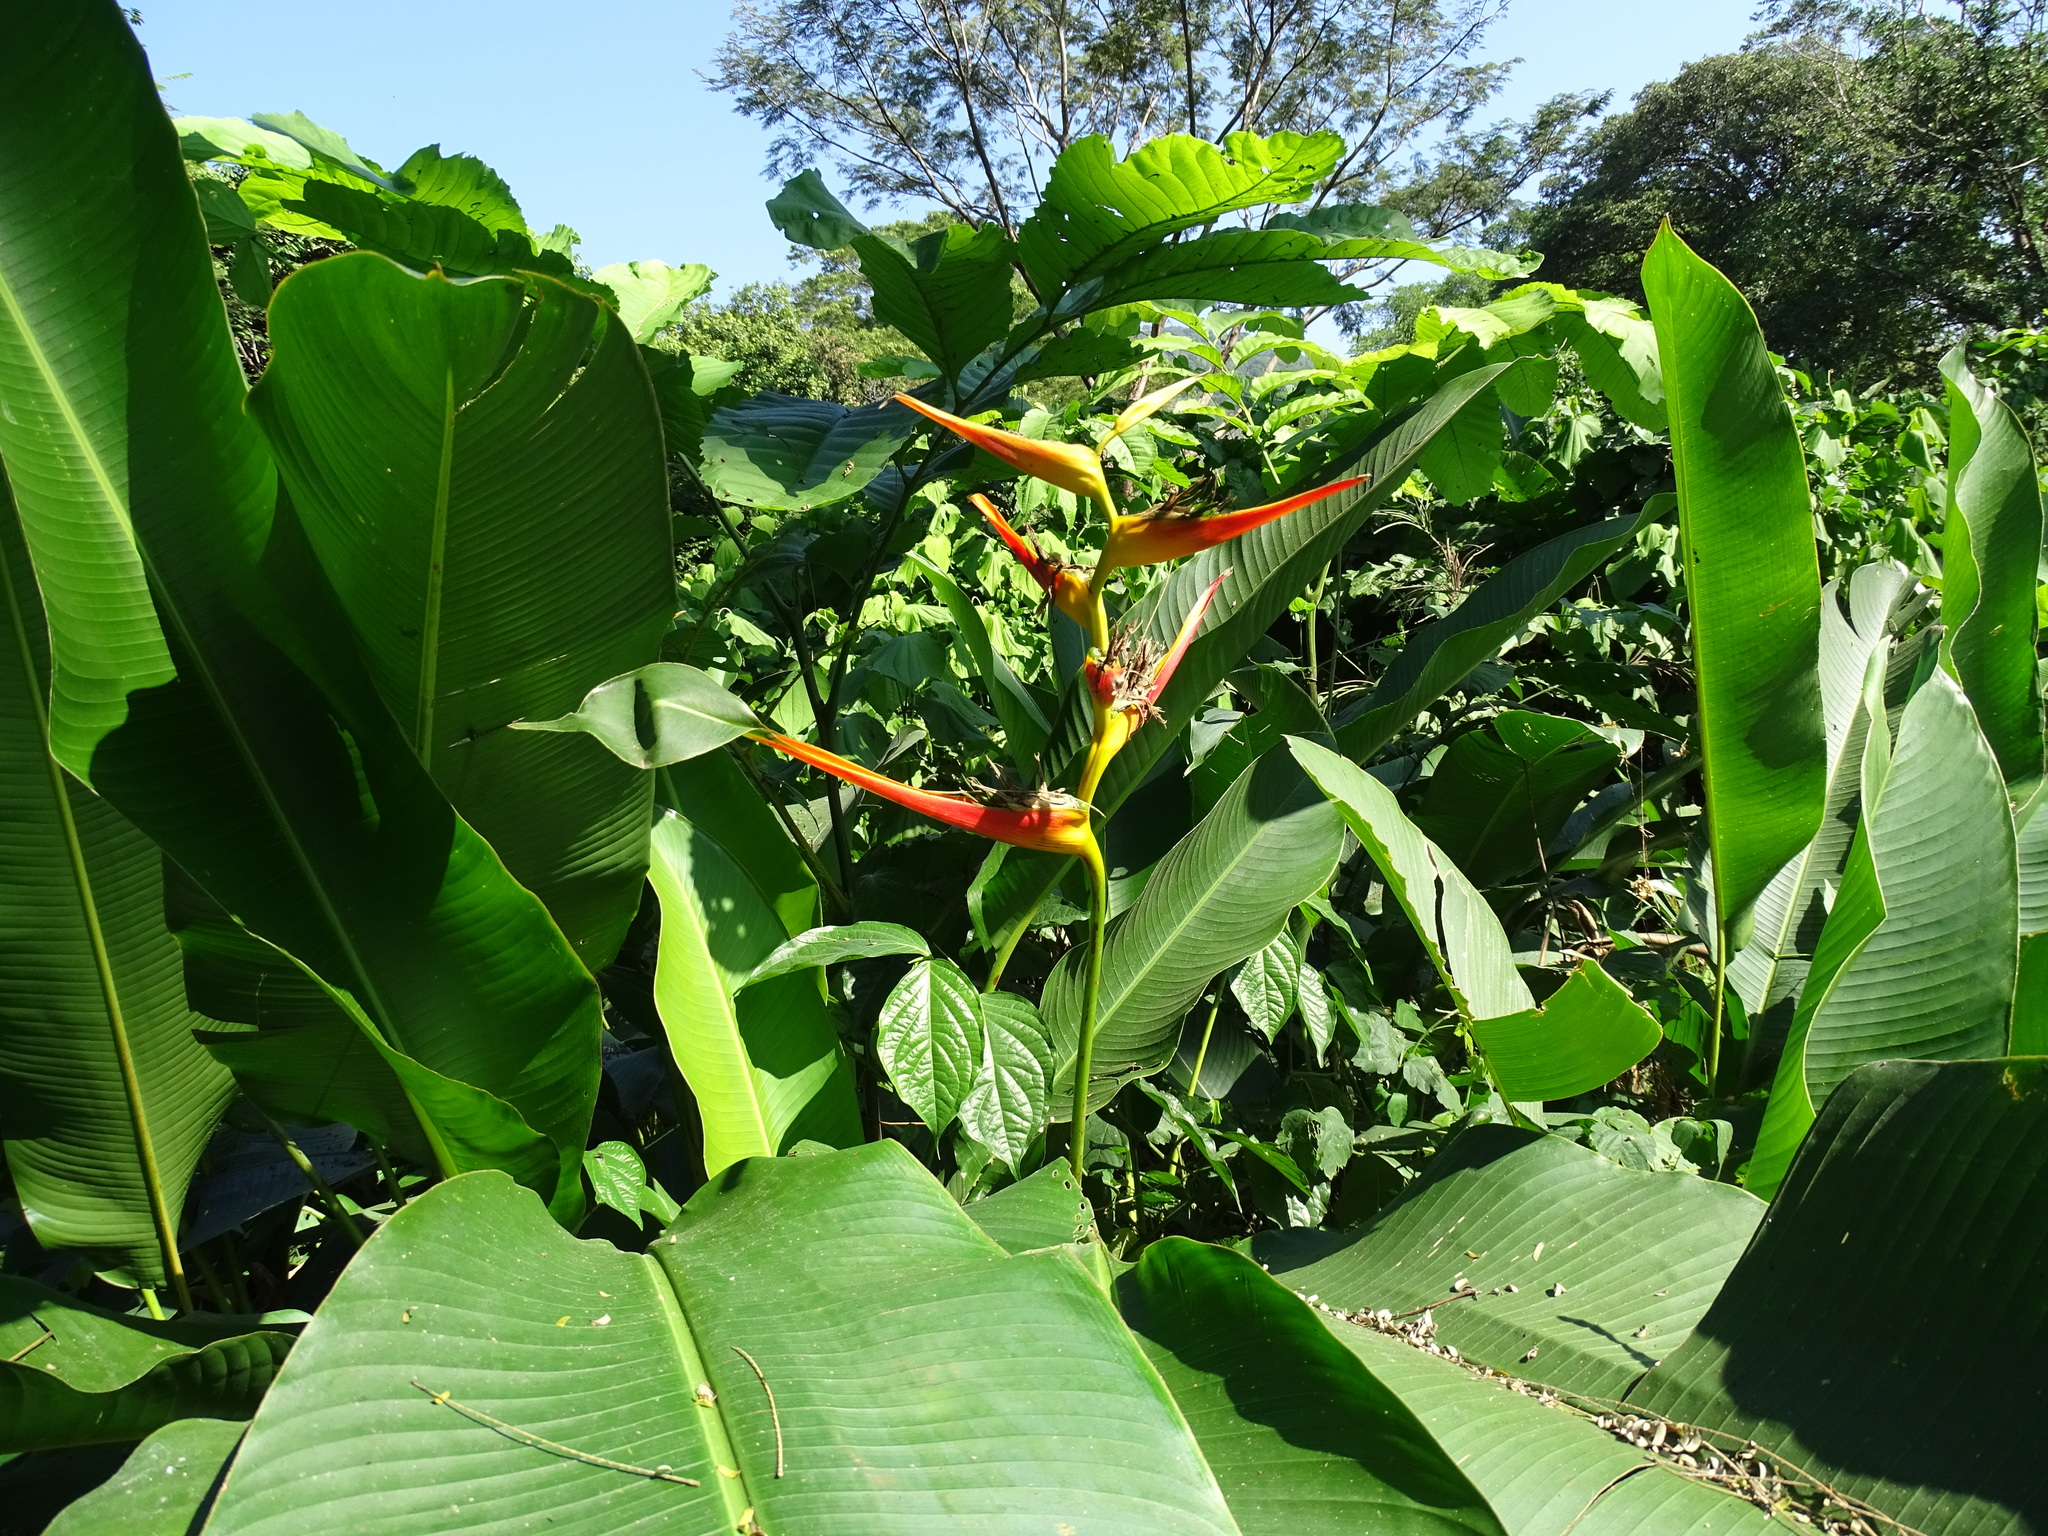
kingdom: Plantae
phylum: Tracheophyta
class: Liliopsida
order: Zingiberales
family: Heliconiaceae
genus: Heliconia
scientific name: Heliconia latispatha
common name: Expanded lobsterclaw
